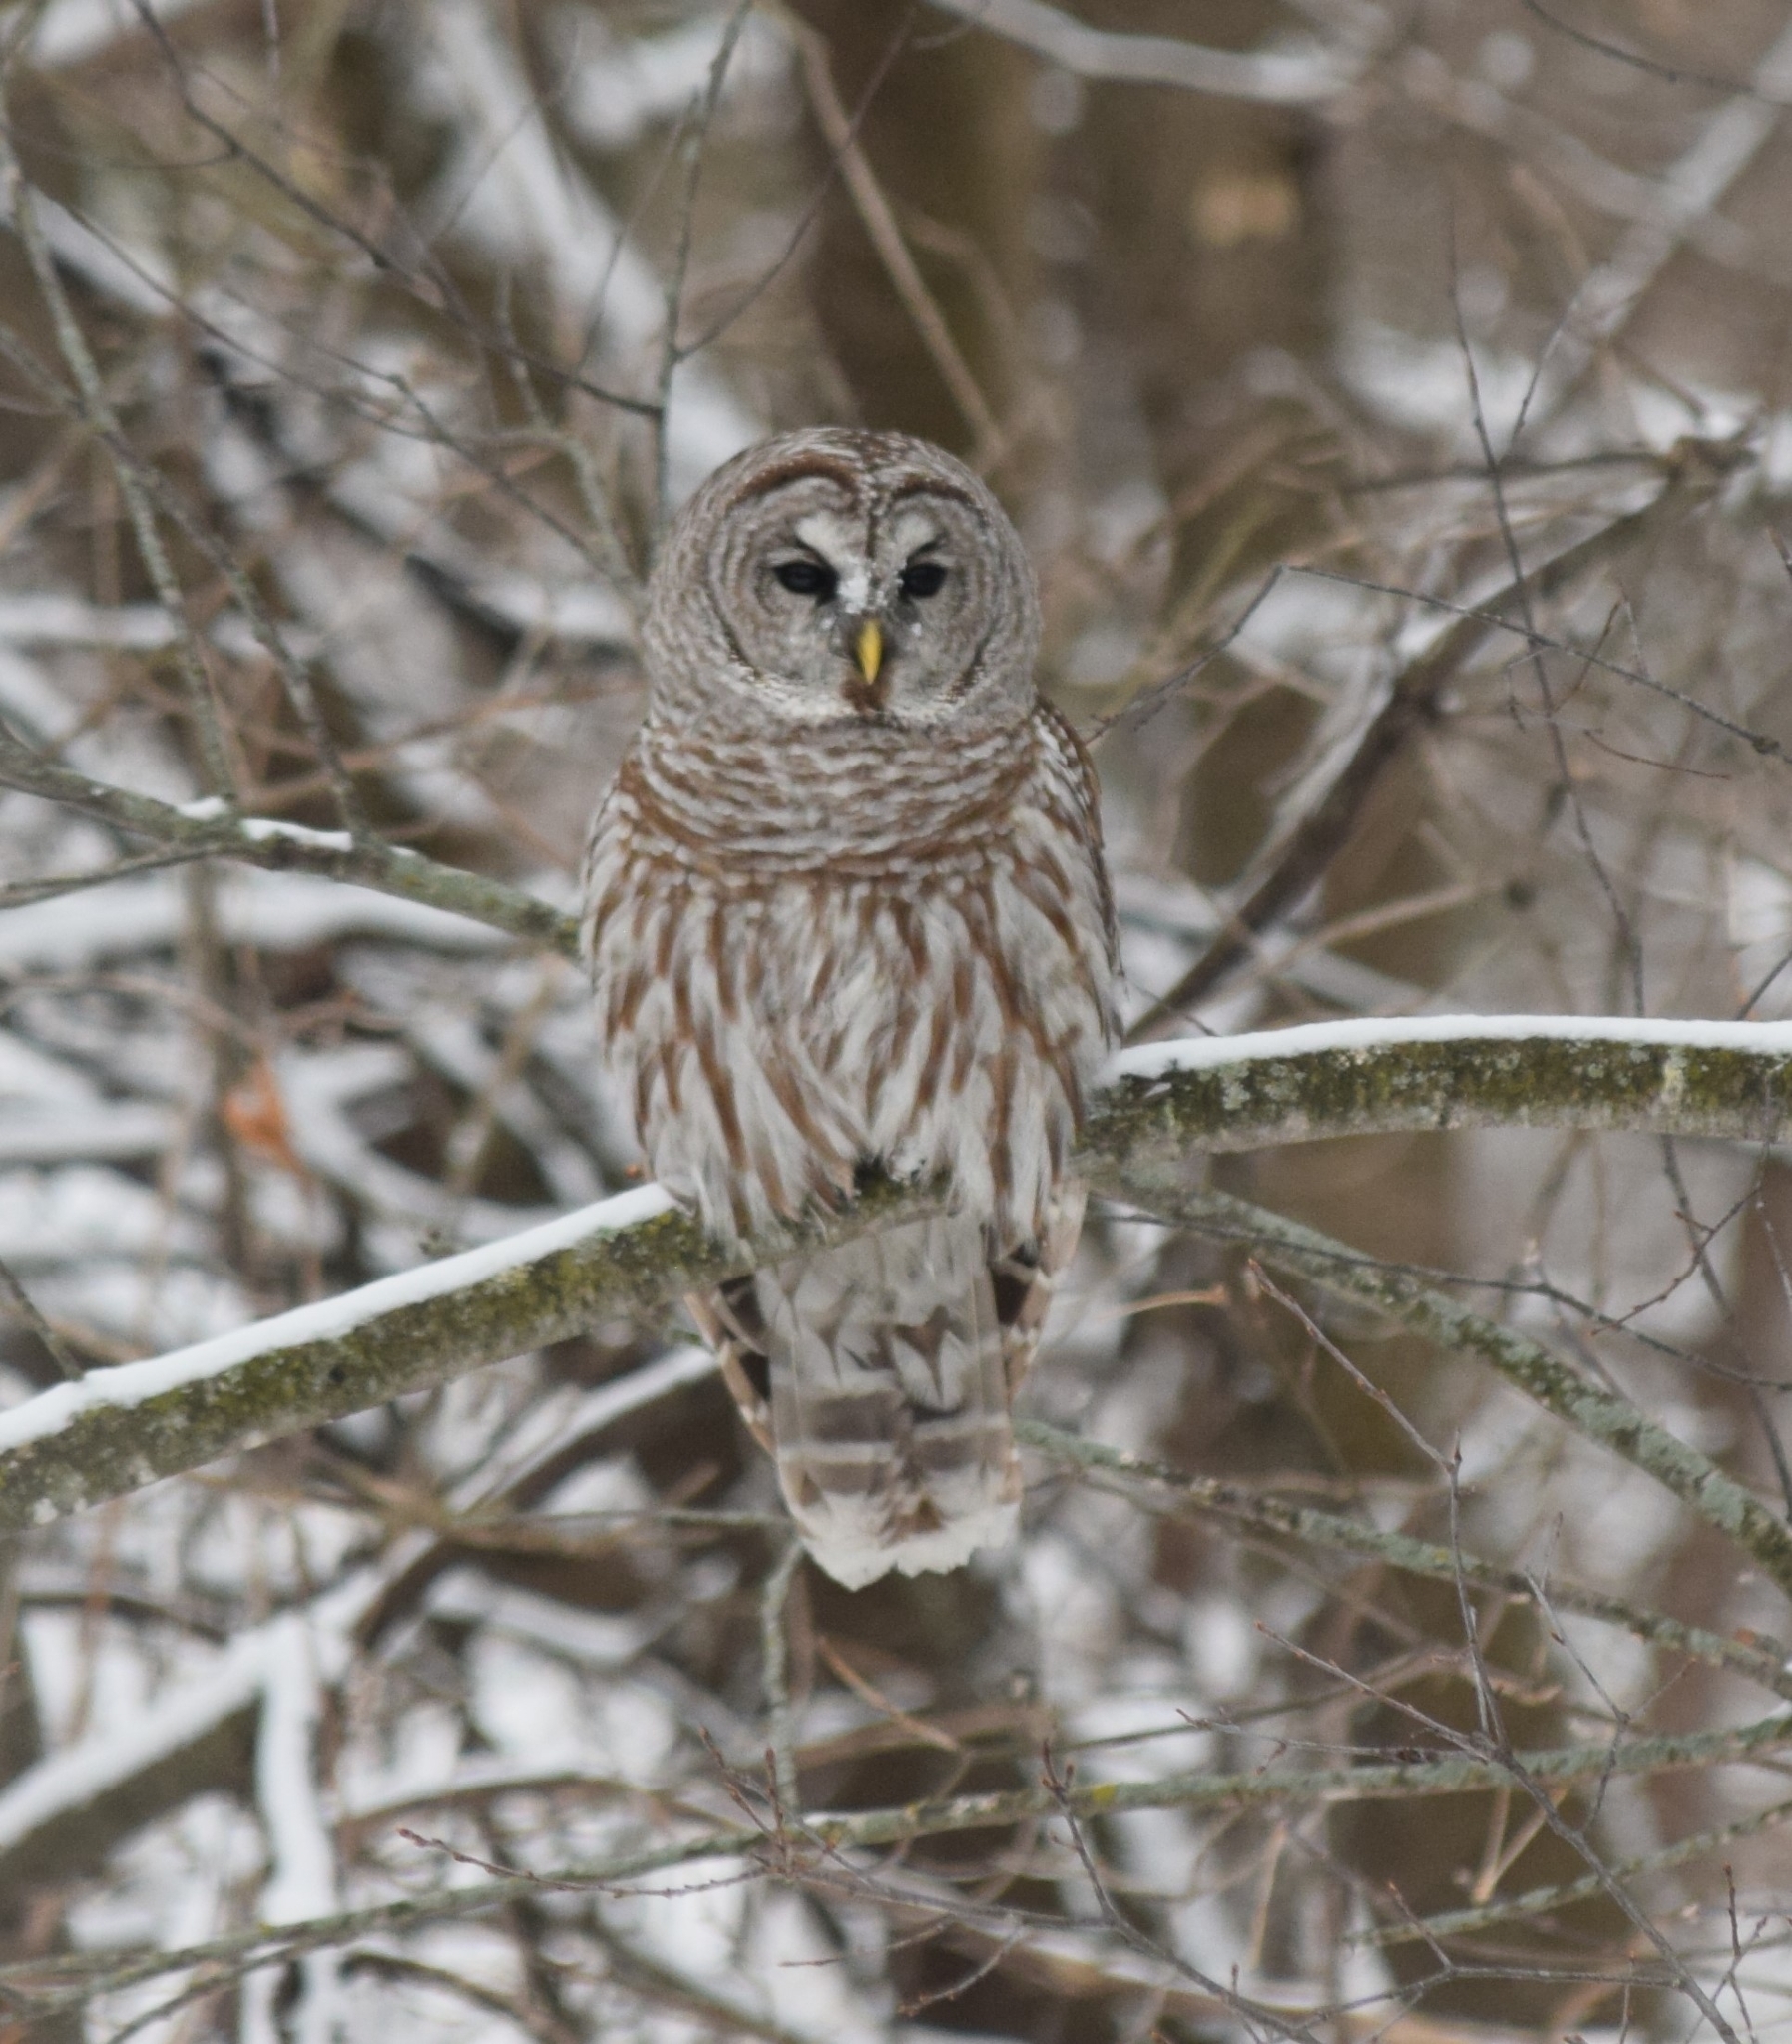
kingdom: Animalia
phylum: Chordata
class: Aves
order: Strigiformes
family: Strigidae
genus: Strix
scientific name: Strix varia
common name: Barred owl
